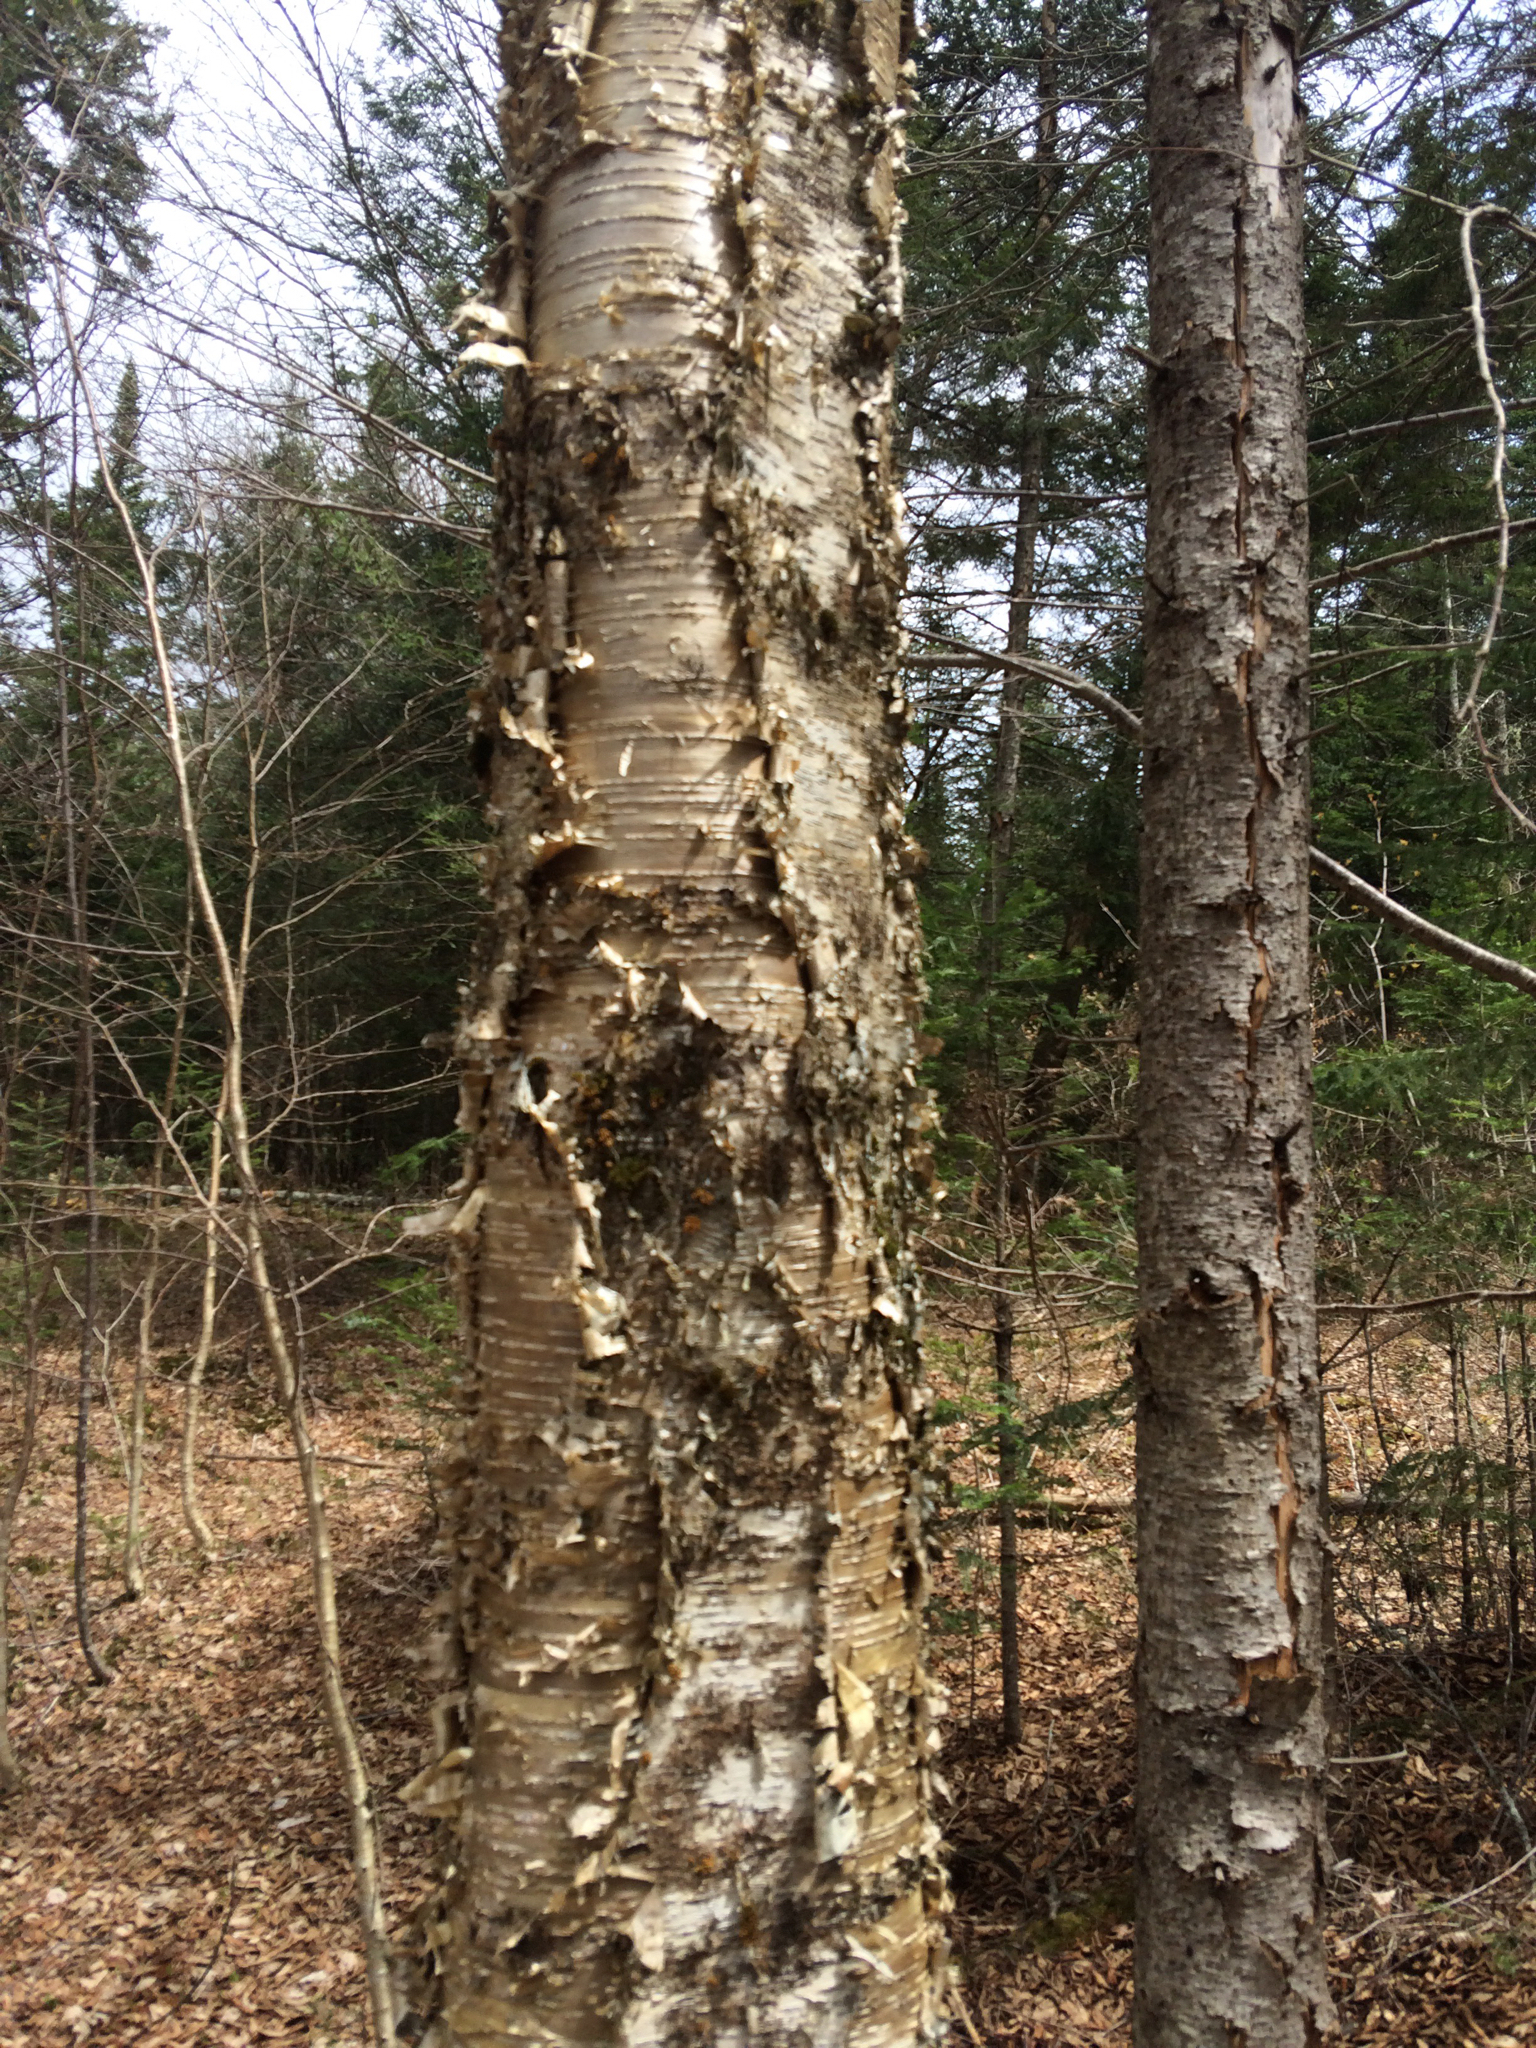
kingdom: Plantae
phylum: Tracheophyta
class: Magnoliopsida
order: Fagales
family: Betulaceae
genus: Betula
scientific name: Betula alleghaniensis
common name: Yellow birch
